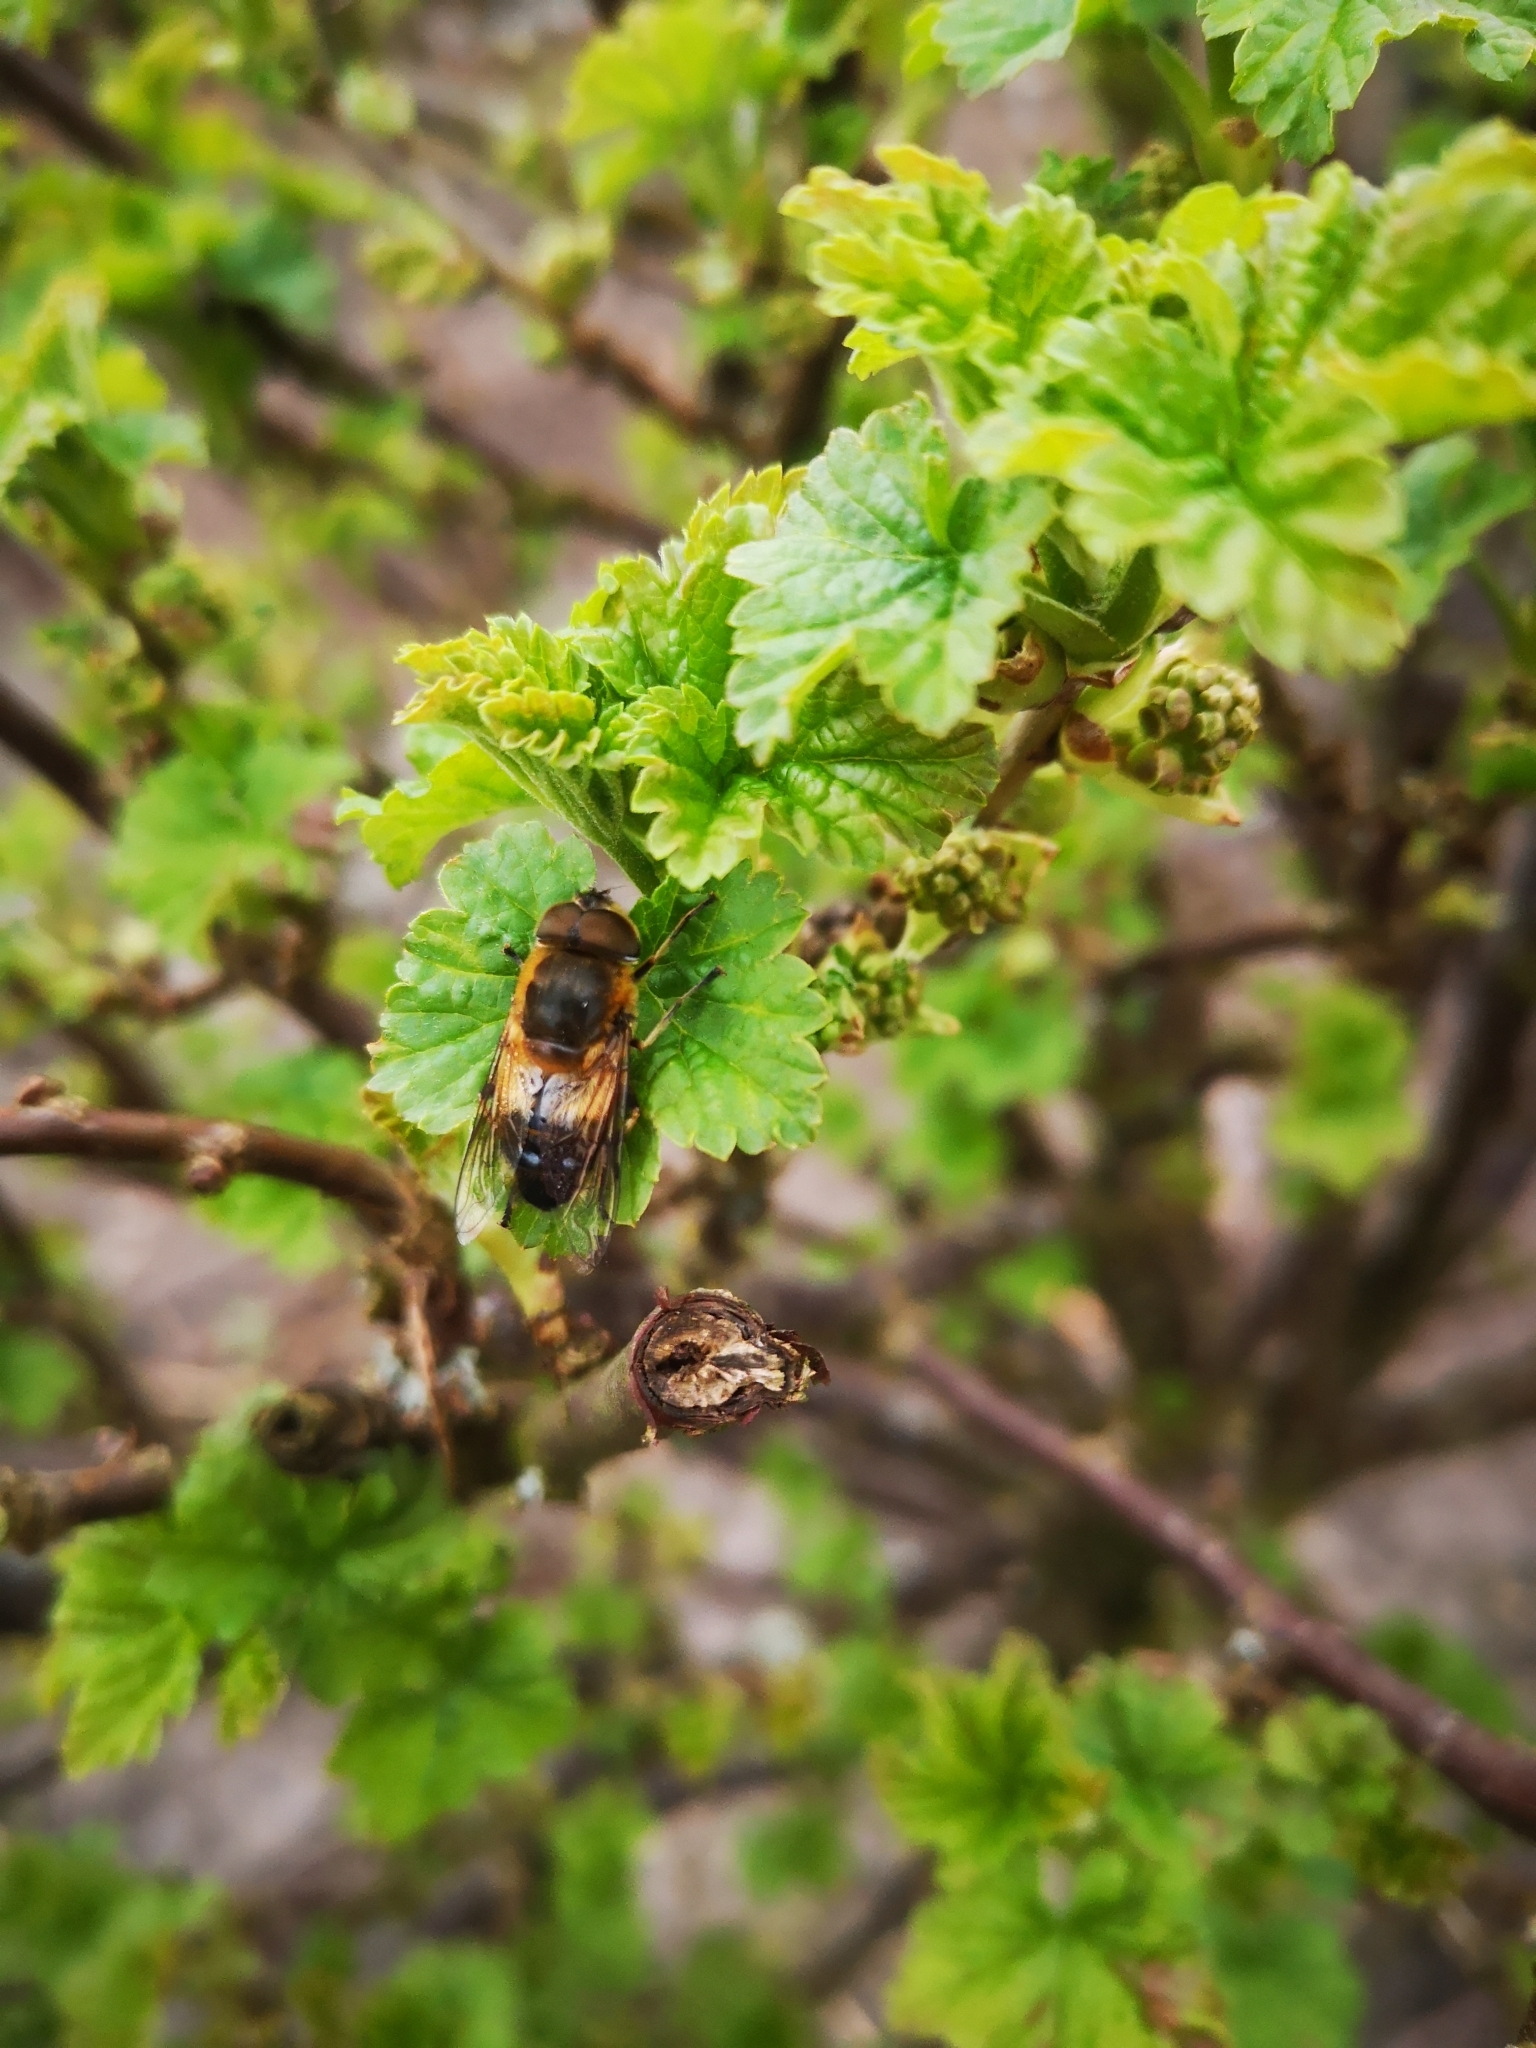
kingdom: Animalia
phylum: Arthropoda
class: Insecta
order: Diptera
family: Syrphidae
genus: Eristalis
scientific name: Eristalis pertinax
